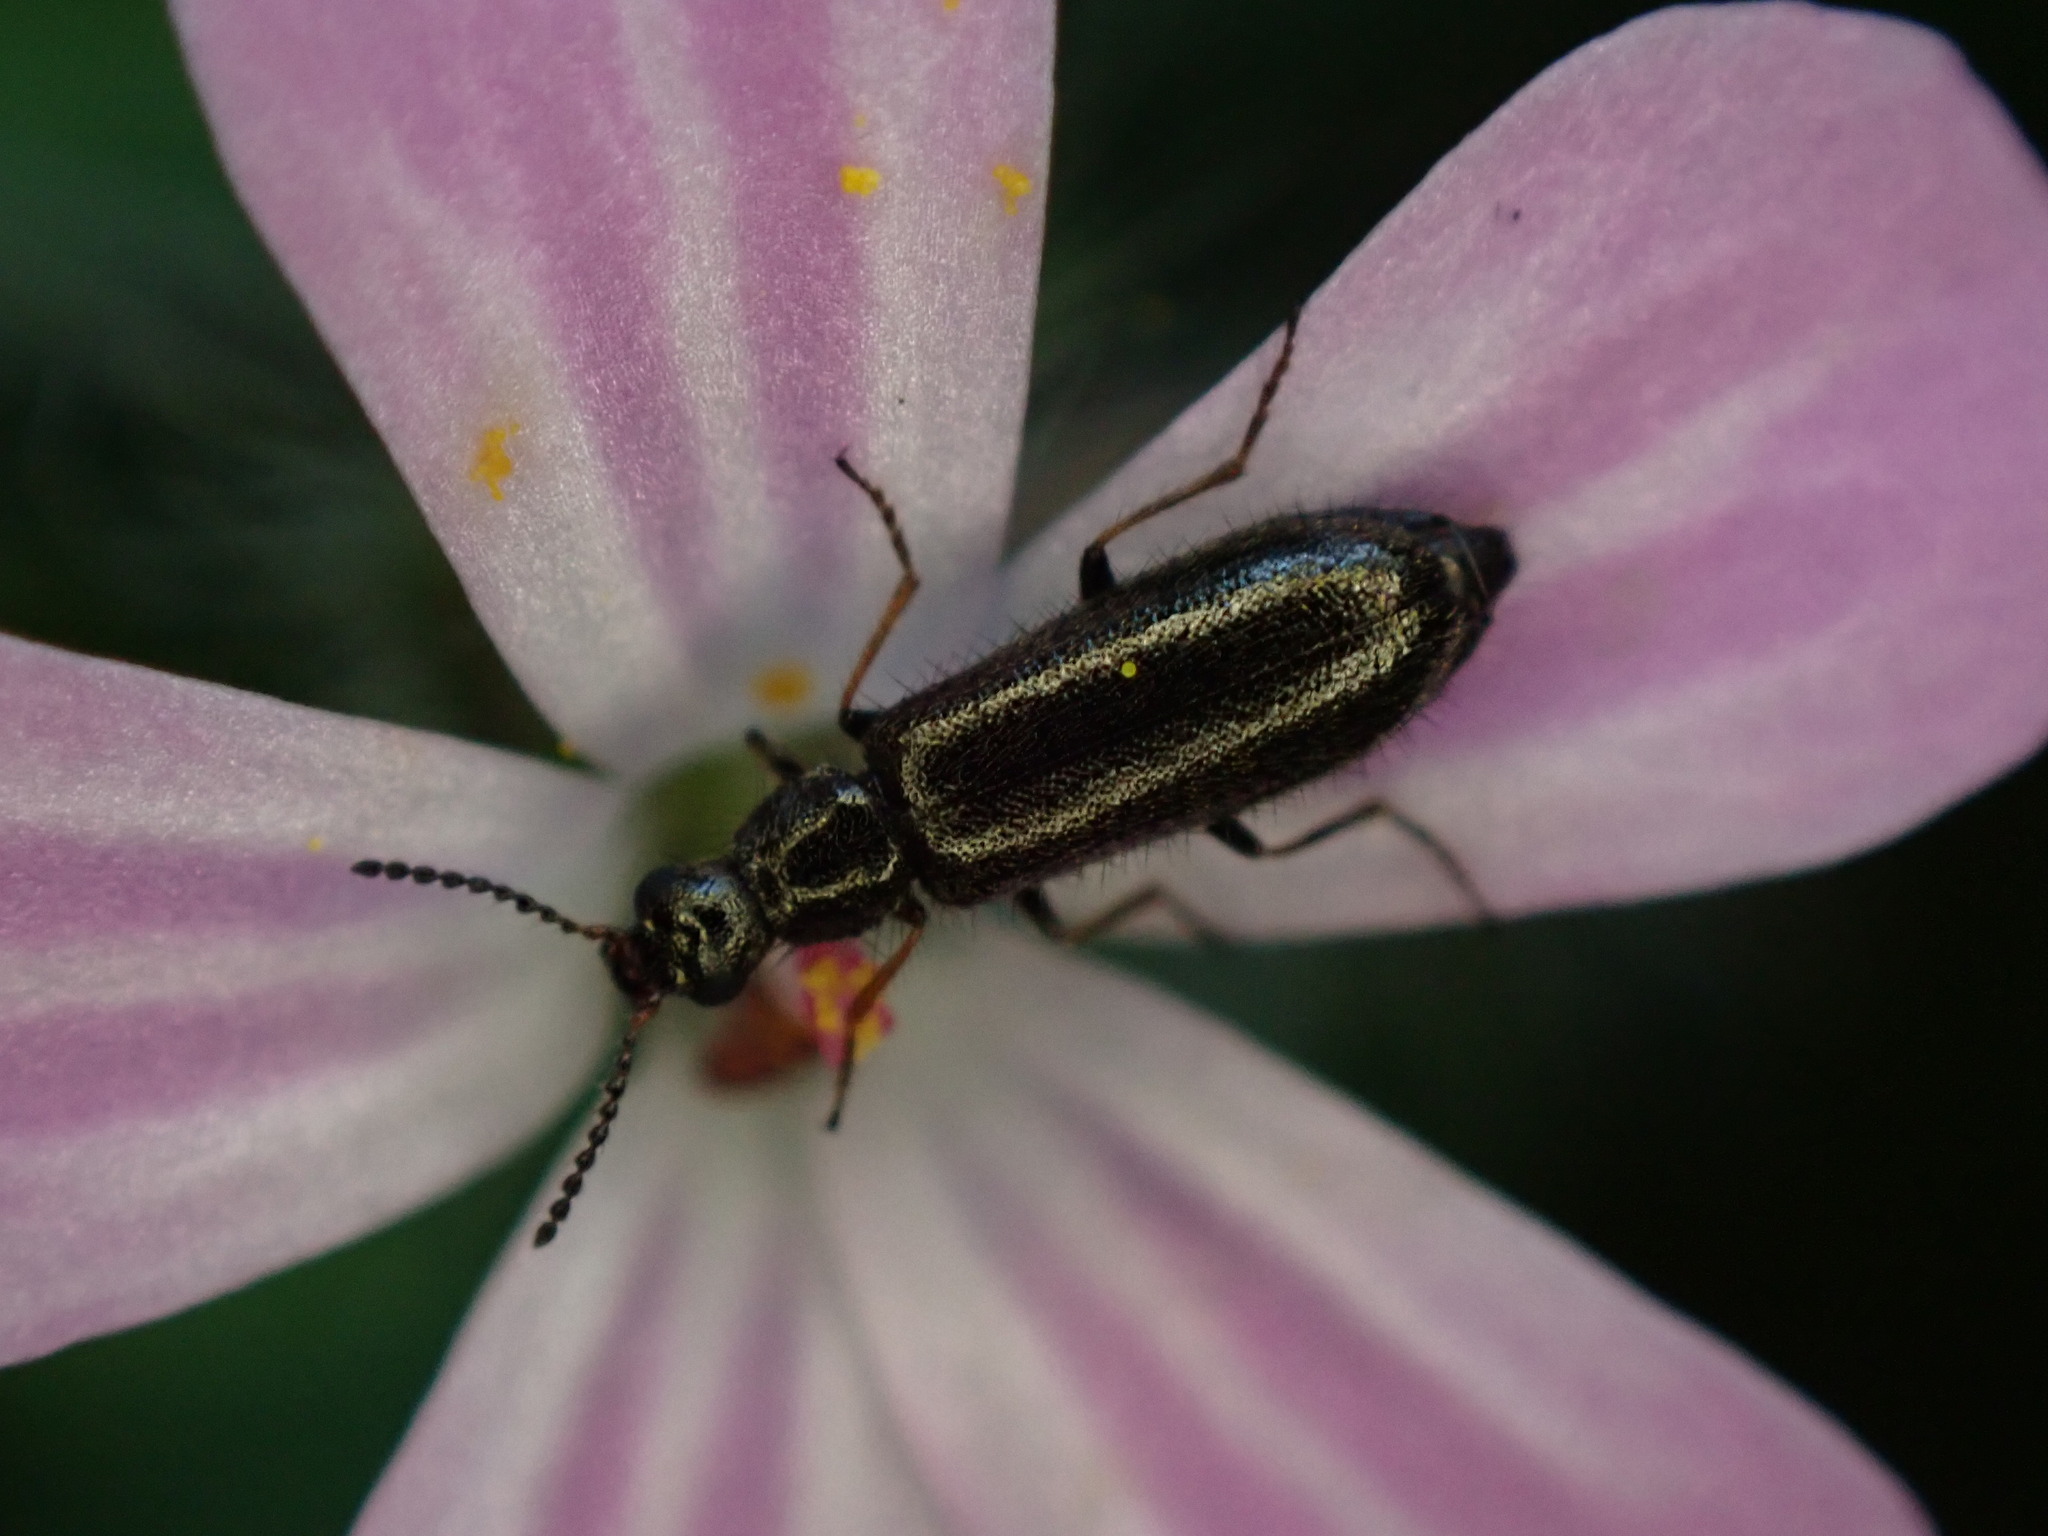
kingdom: Animalia
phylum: Arthropoda
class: Insecta
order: Coleoptera
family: Melyridae
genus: Dasytes
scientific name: Dasytes plumbeus
